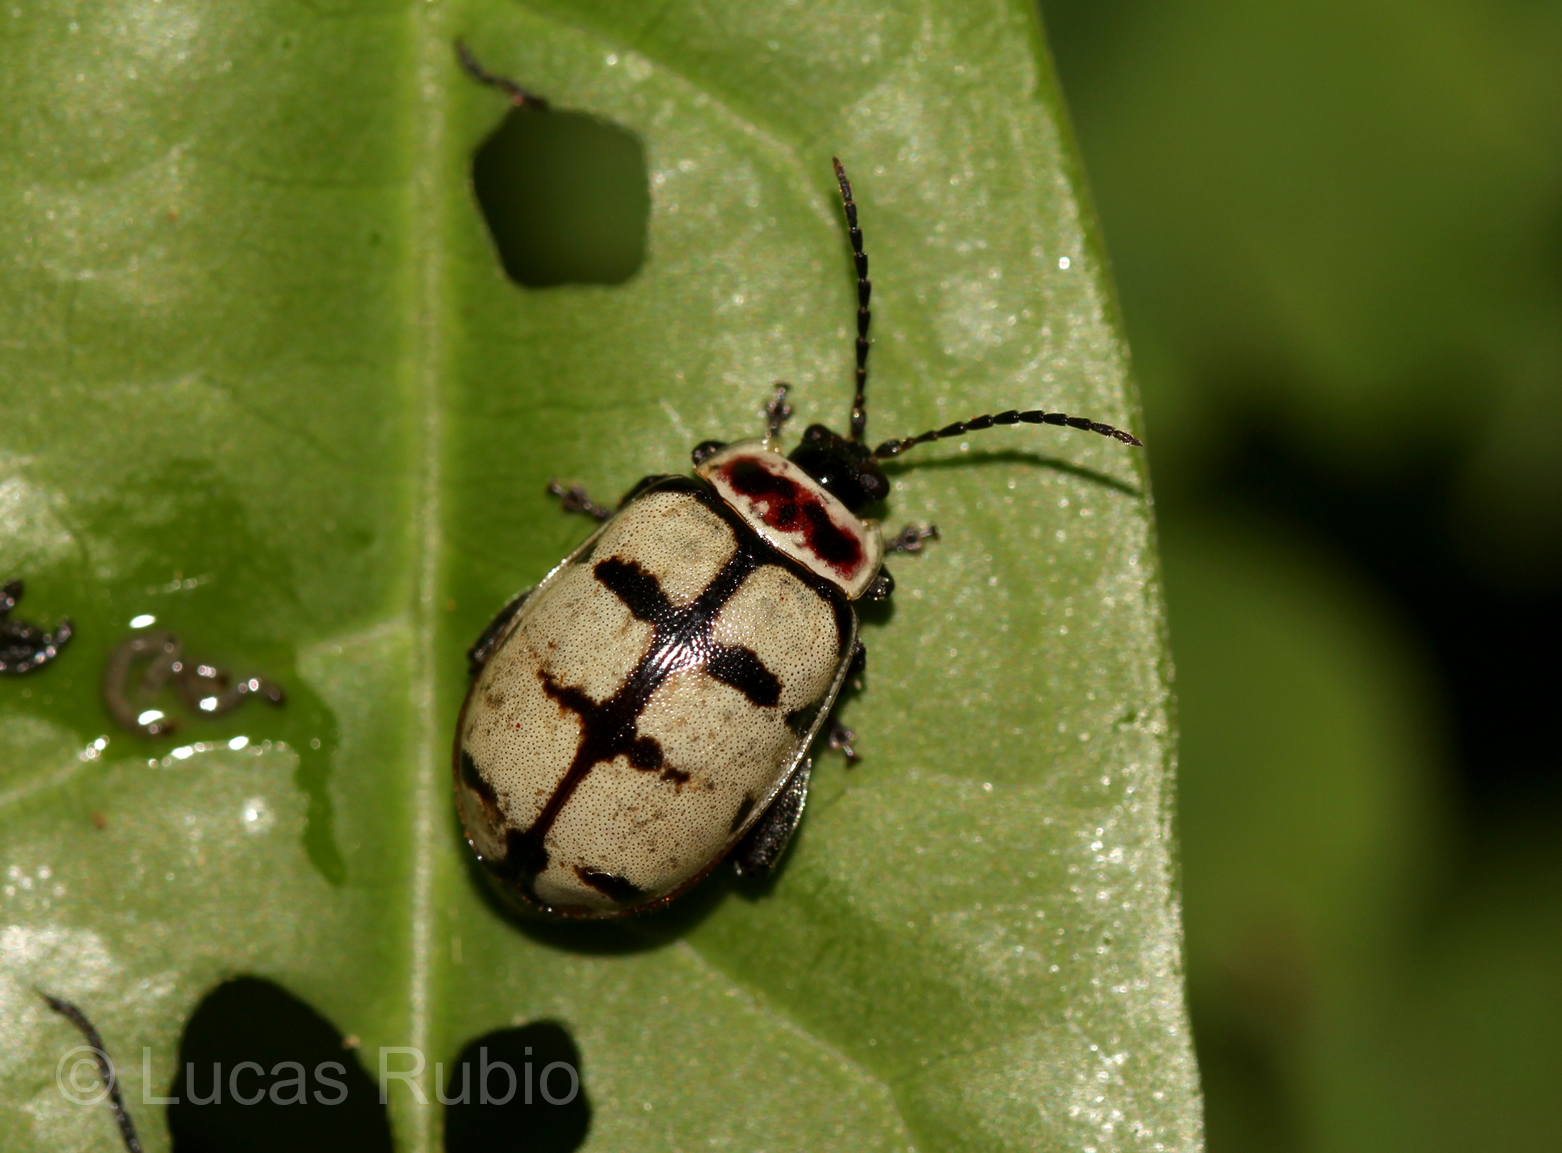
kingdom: Animalia
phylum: Arthropoda
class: Insecta
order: Coleoptera
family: Chrysomelidae
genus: Alagoasa
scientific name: Alagoasa scissa
